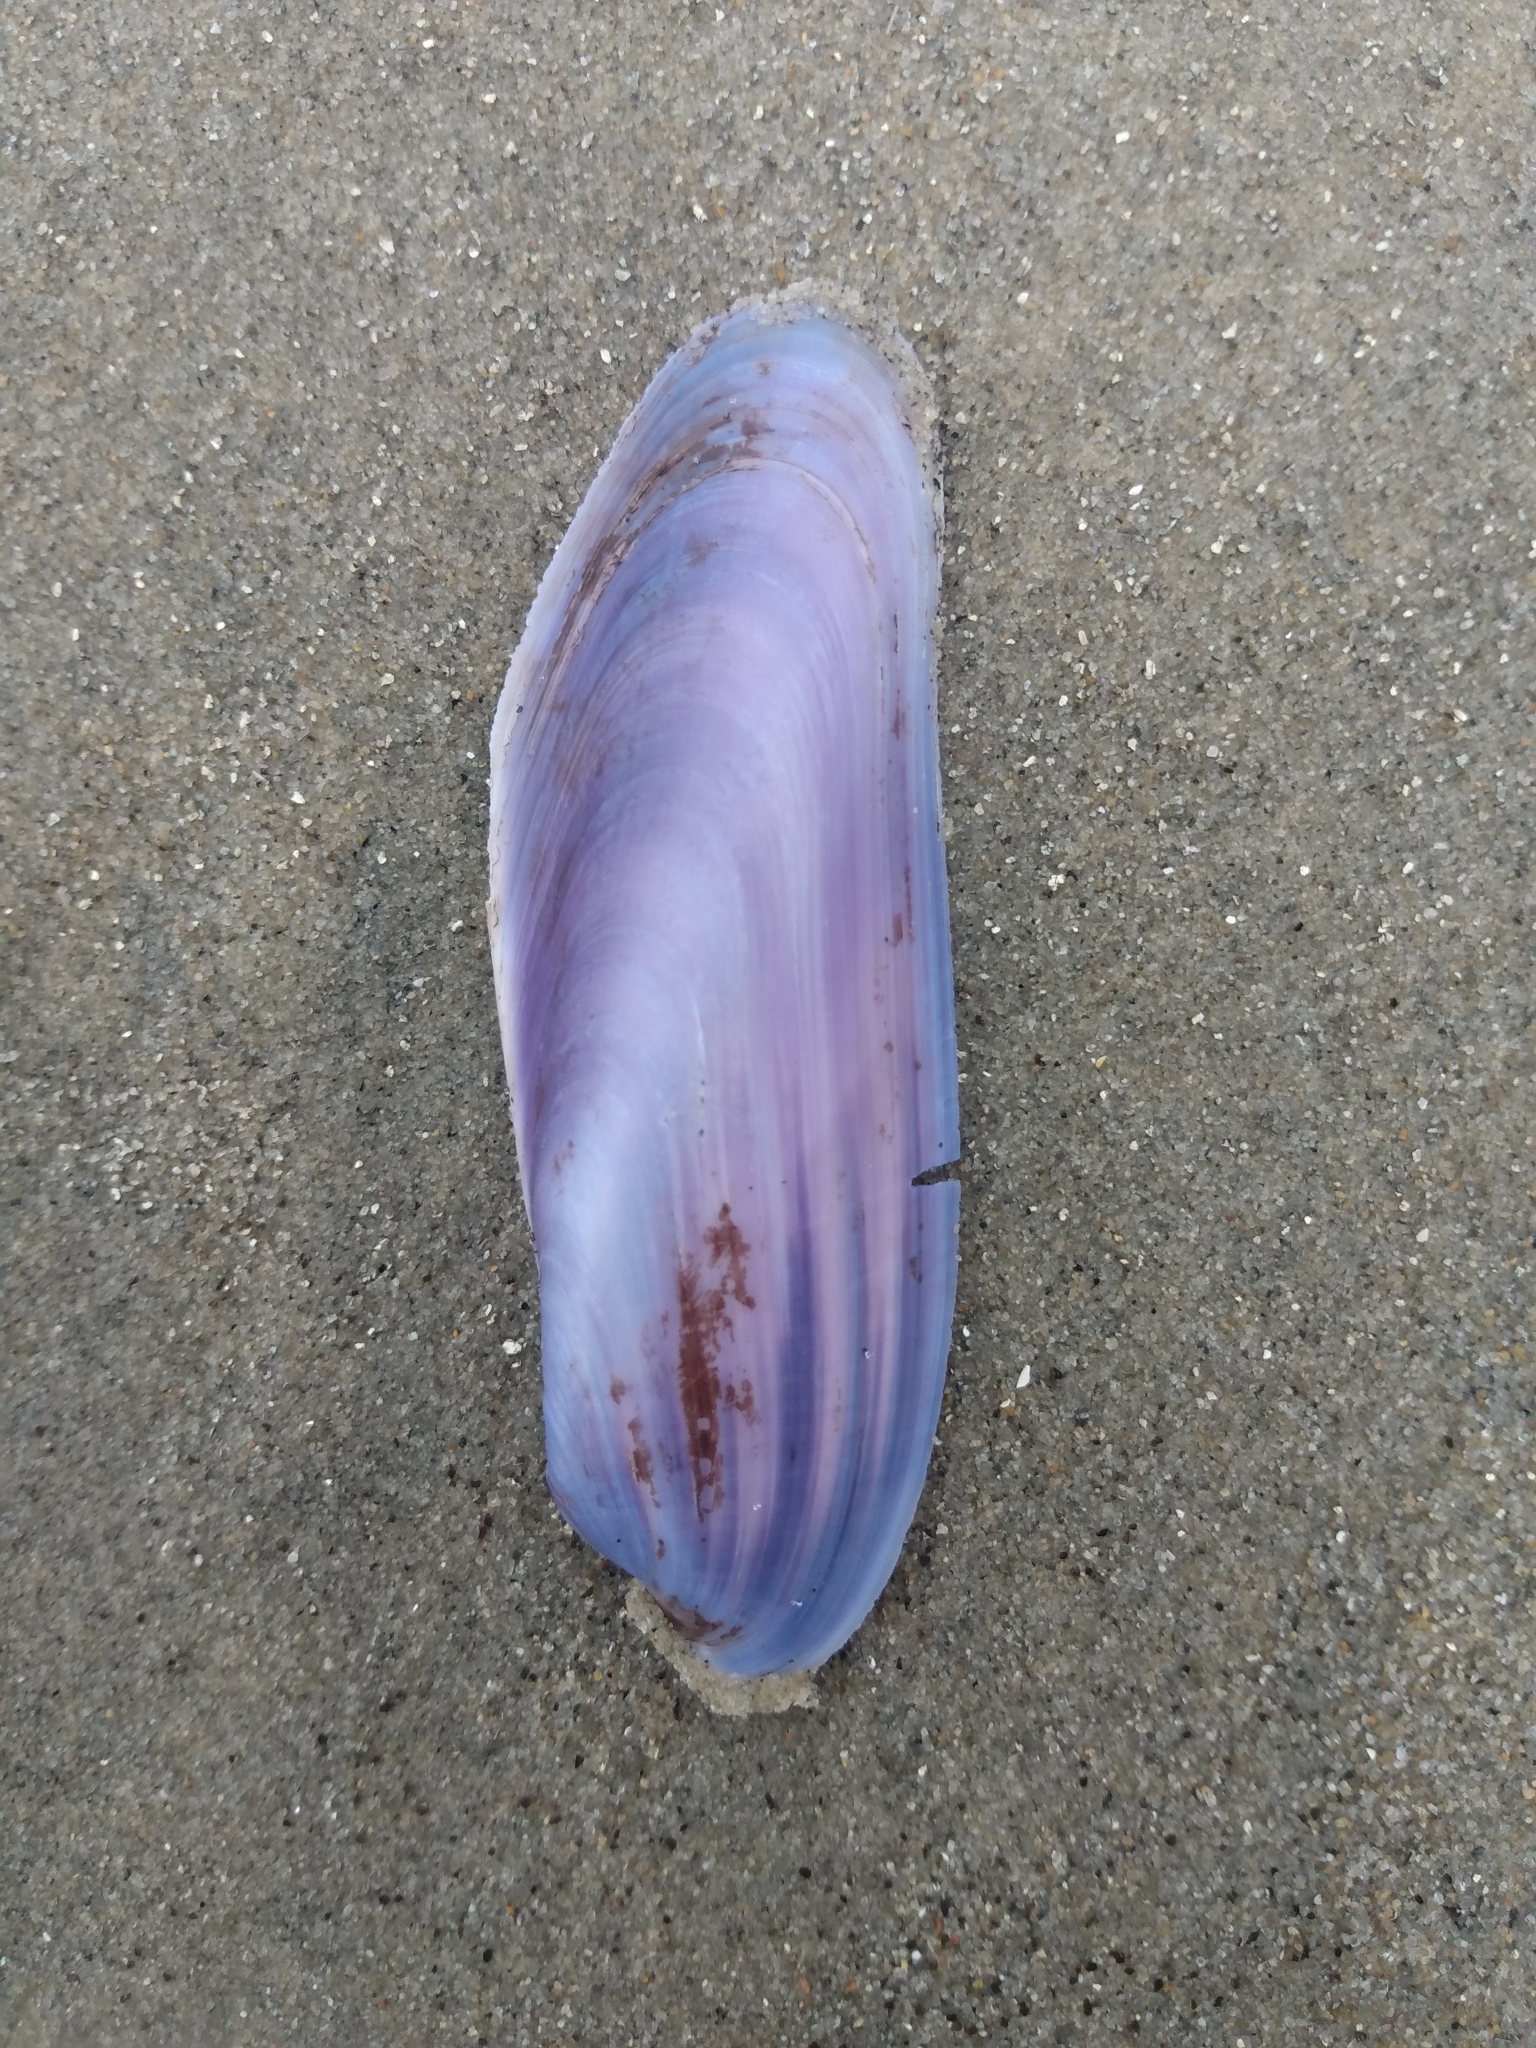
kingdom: Animalia
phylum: Mollusca
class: Bivalvia
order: Mytilida
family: Mytilidae
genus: Modiolatus
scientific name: Modiolatus neglectus
